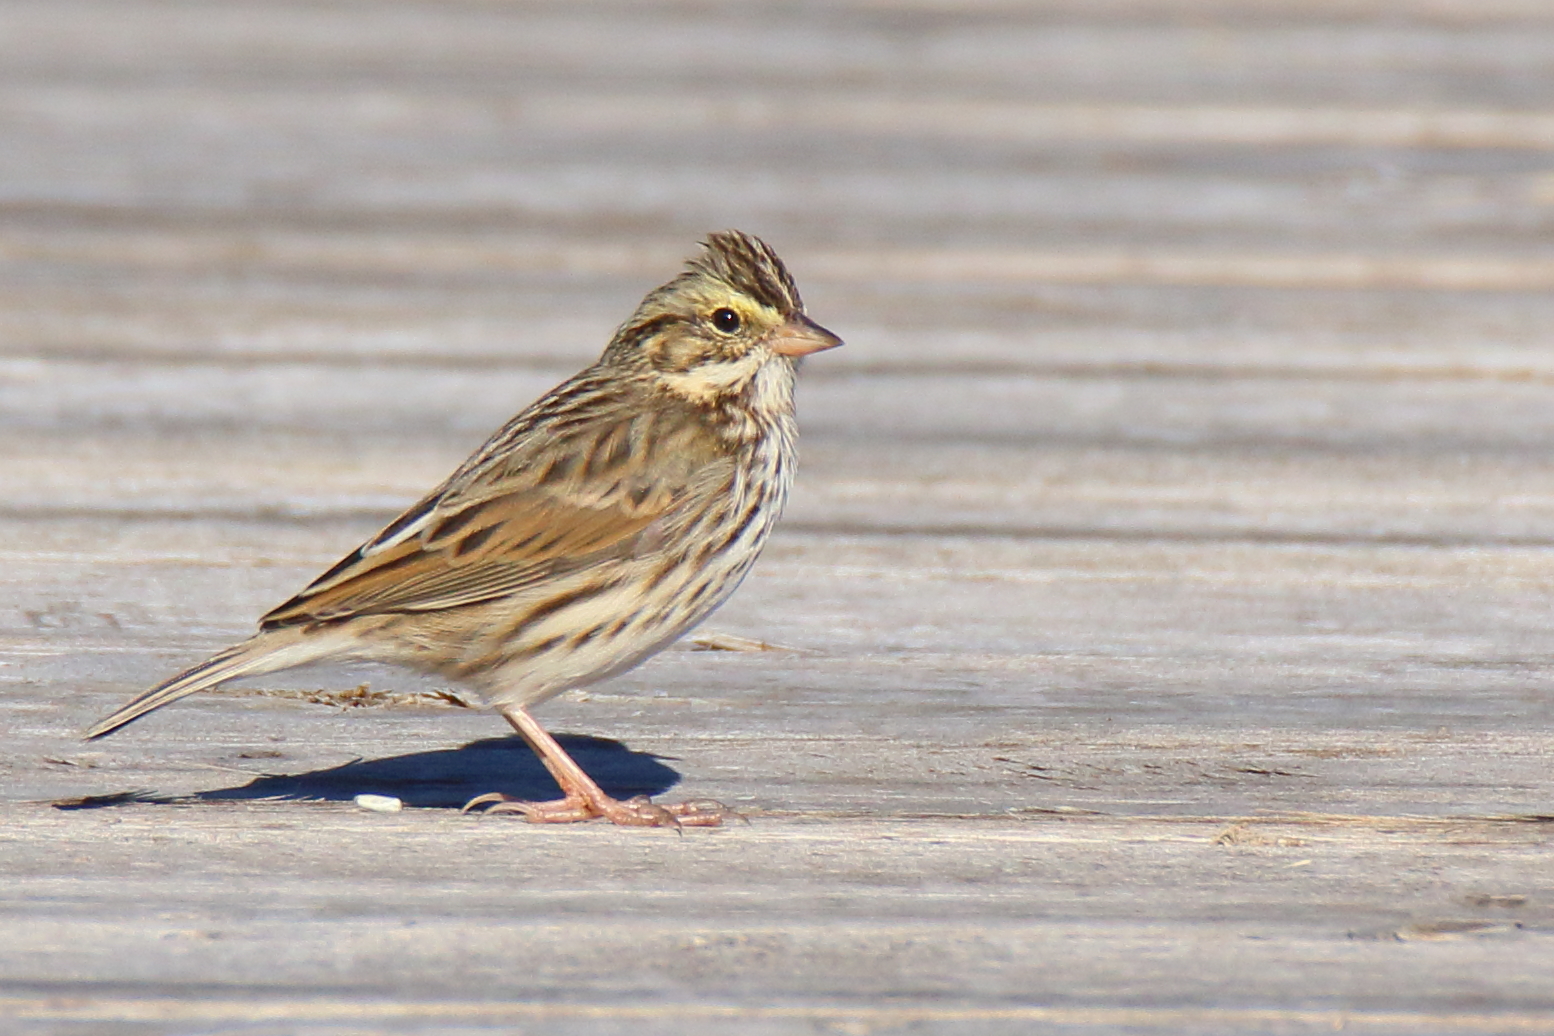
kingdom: Animalia
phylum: Chordata
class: Aves
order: Passeriformes
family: Passerellidae
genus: Passerculus
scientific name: Passerculus sandwichensis
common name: Savannah sparrow
